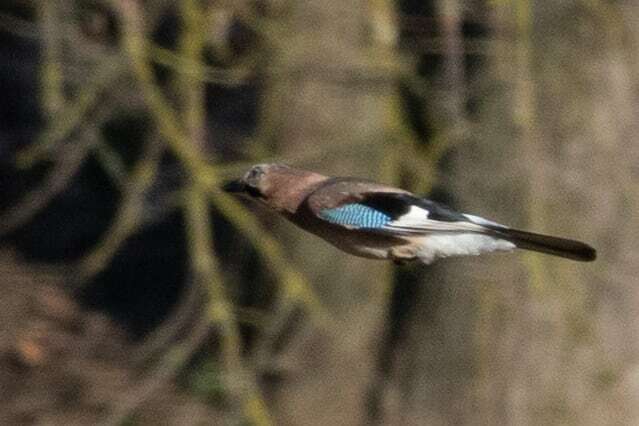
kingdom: Animalia
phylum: Chordata
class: Aves
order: Passeriformes
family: Corvidae
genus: Garrulus
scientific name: Garrulus glandarius
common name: Eurasian jay
